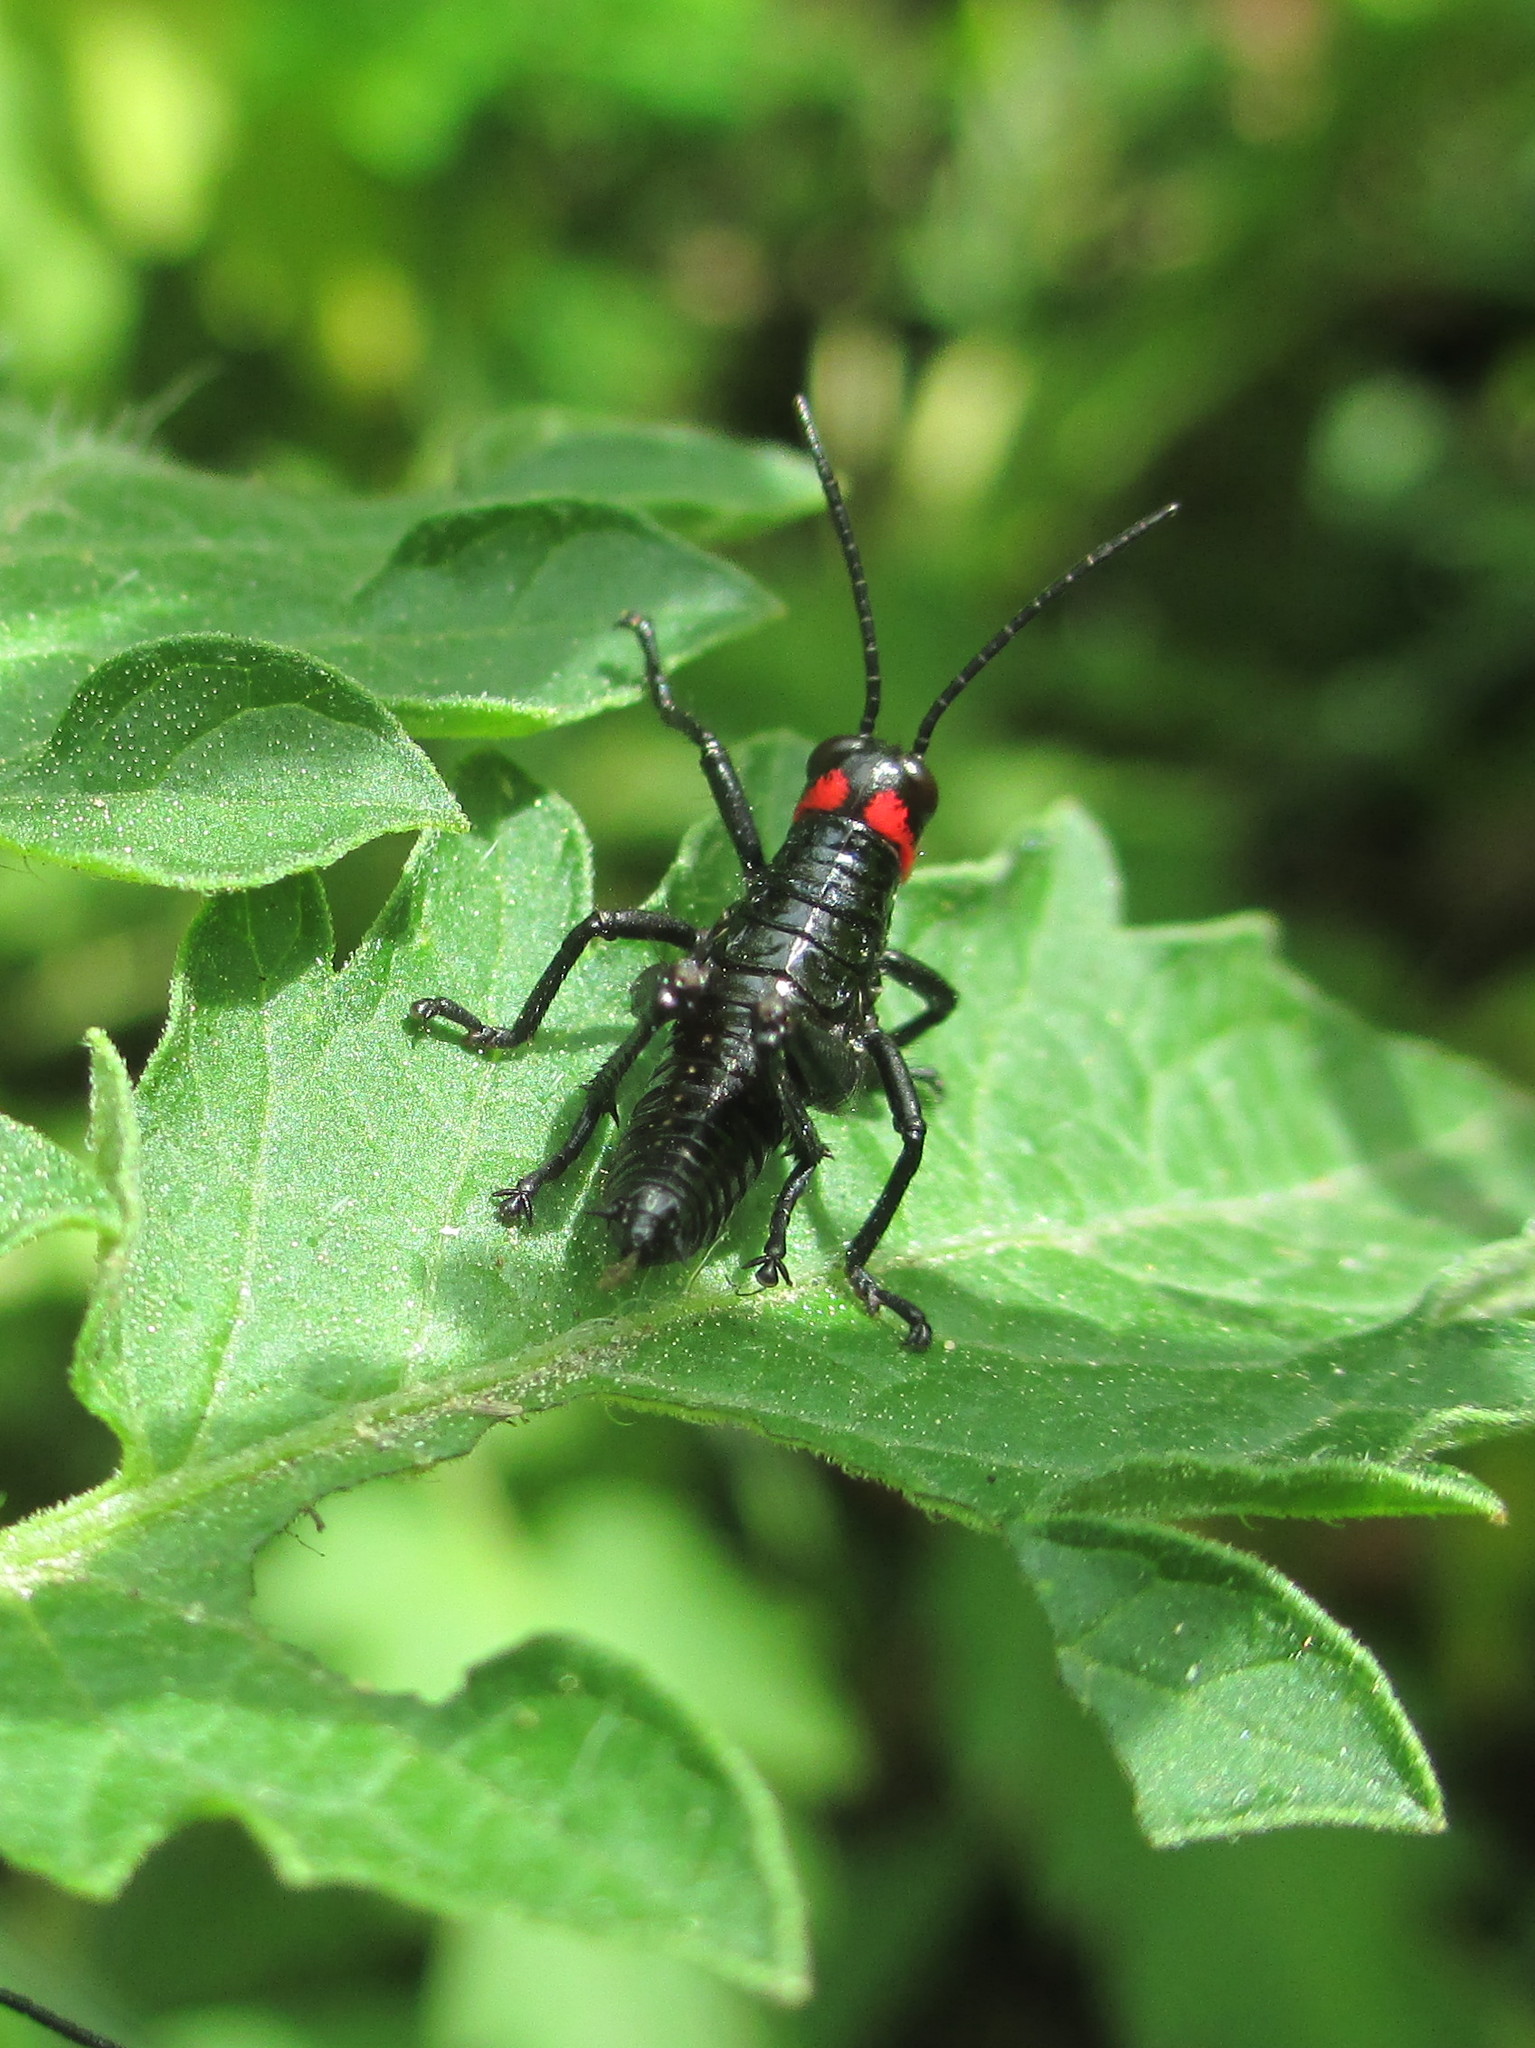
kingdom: Animalia
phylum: Arthropoda
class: Insecta
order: Orthoptera
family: Romaleidae
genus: Chromacris
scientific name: Chromacris speciosa
